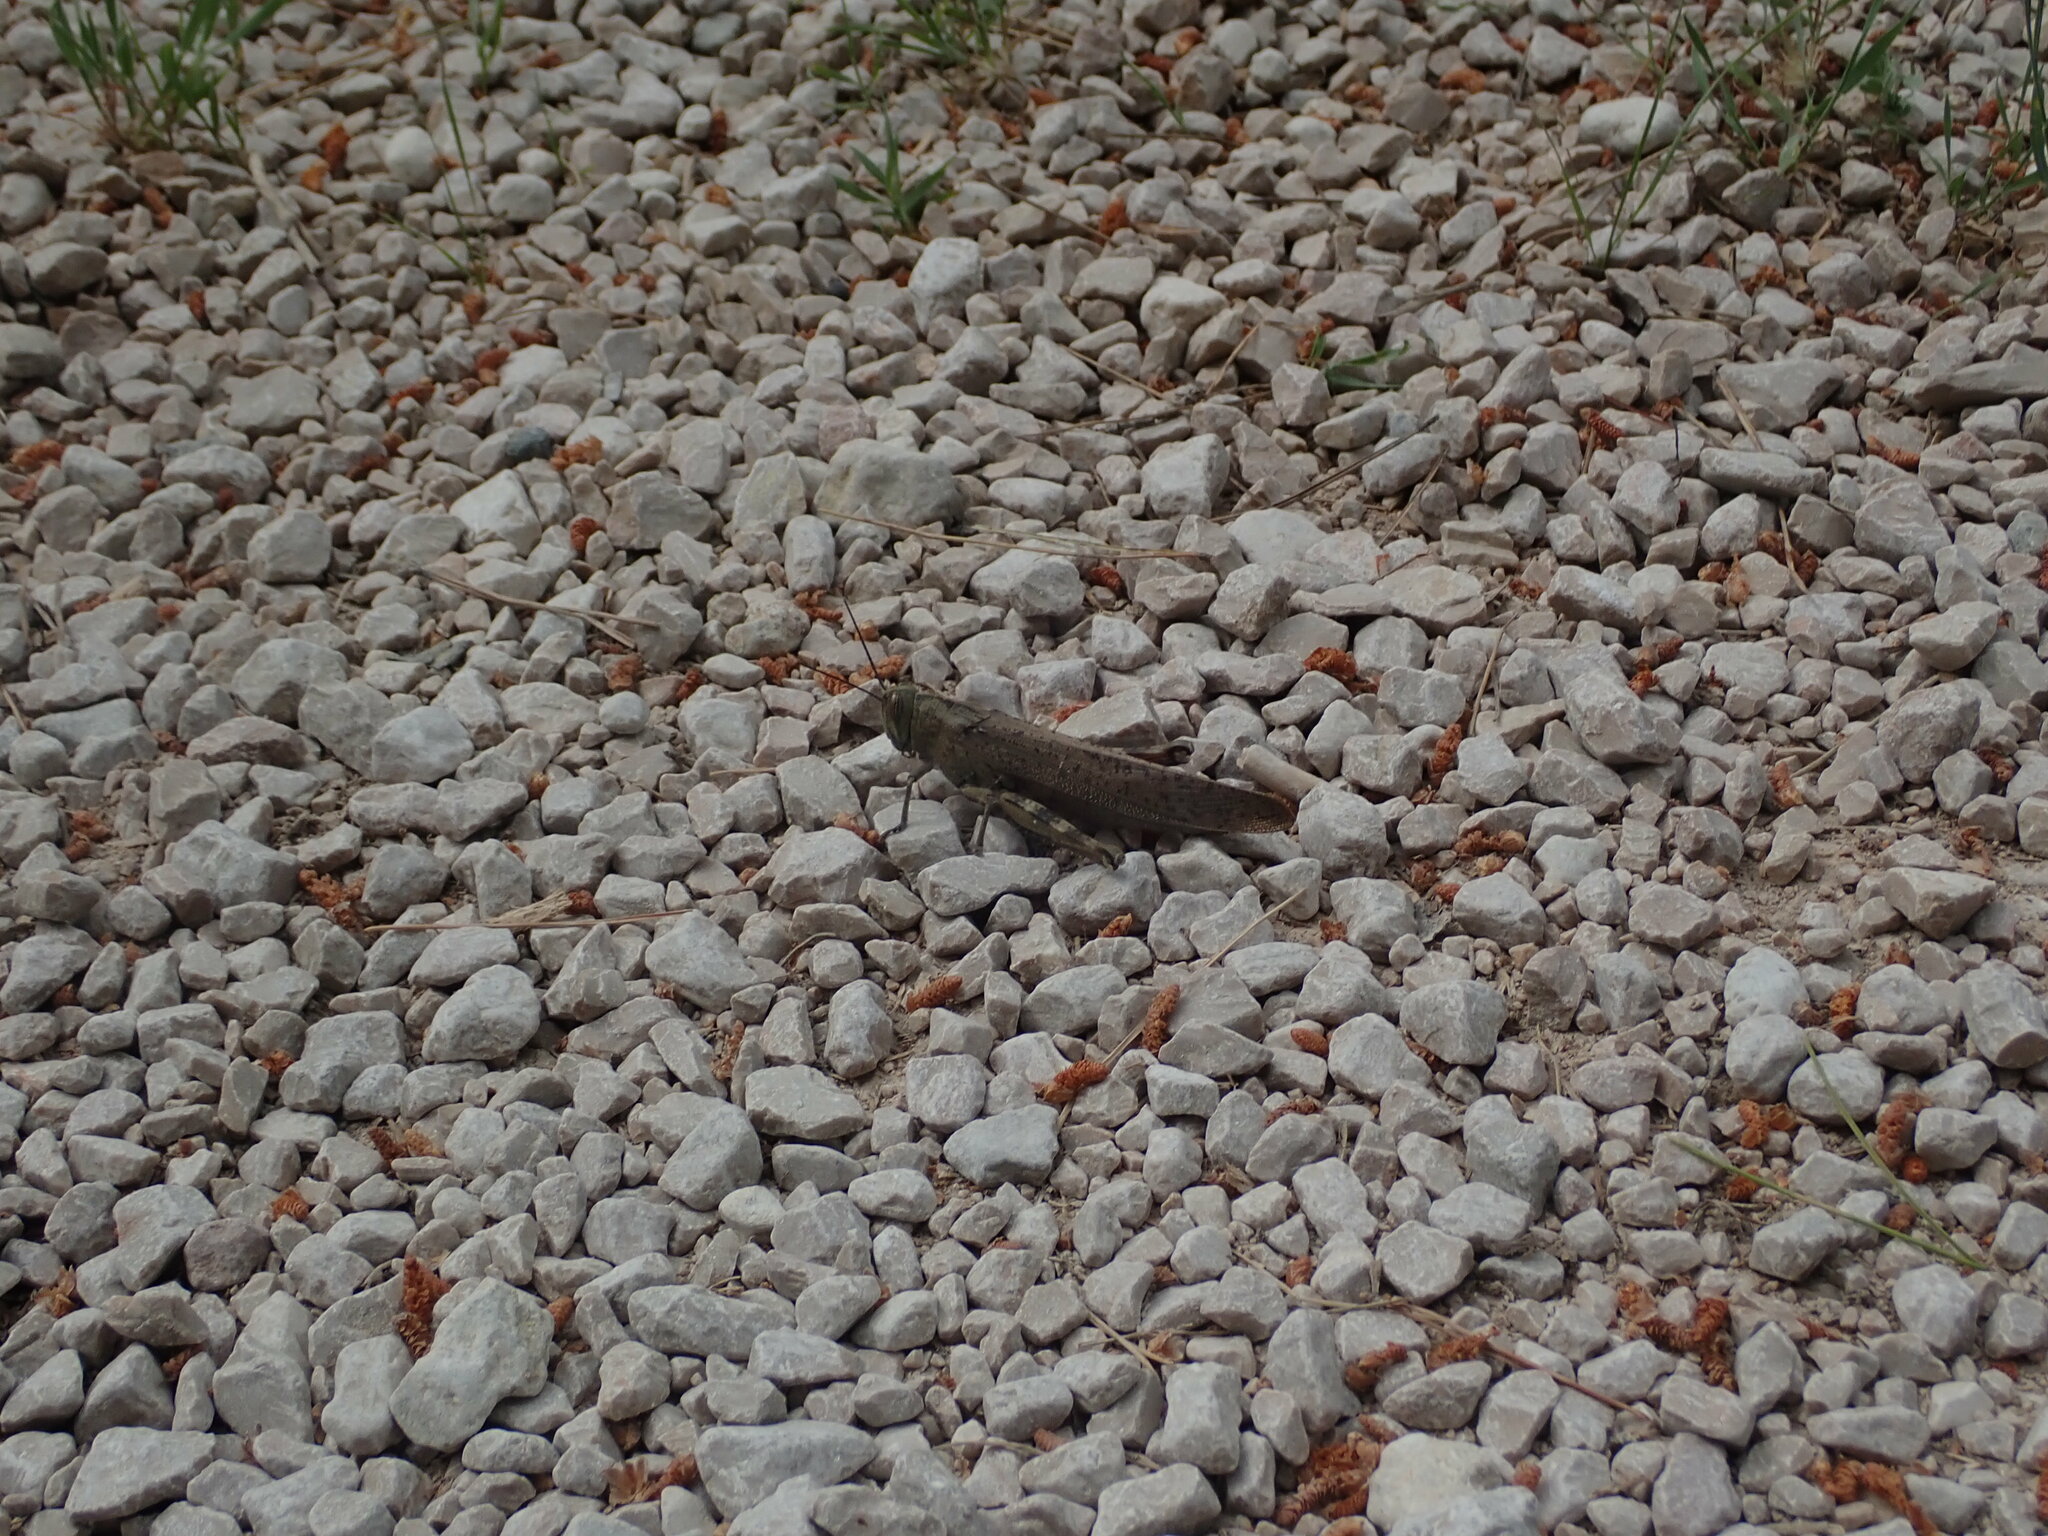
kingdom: Animalia
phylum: Arthropoda
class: Insecta
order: Orthoptera
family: Acrididae
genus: Anacridium
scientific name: Anacridium aegyptium
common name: Egyptian grasshopper
